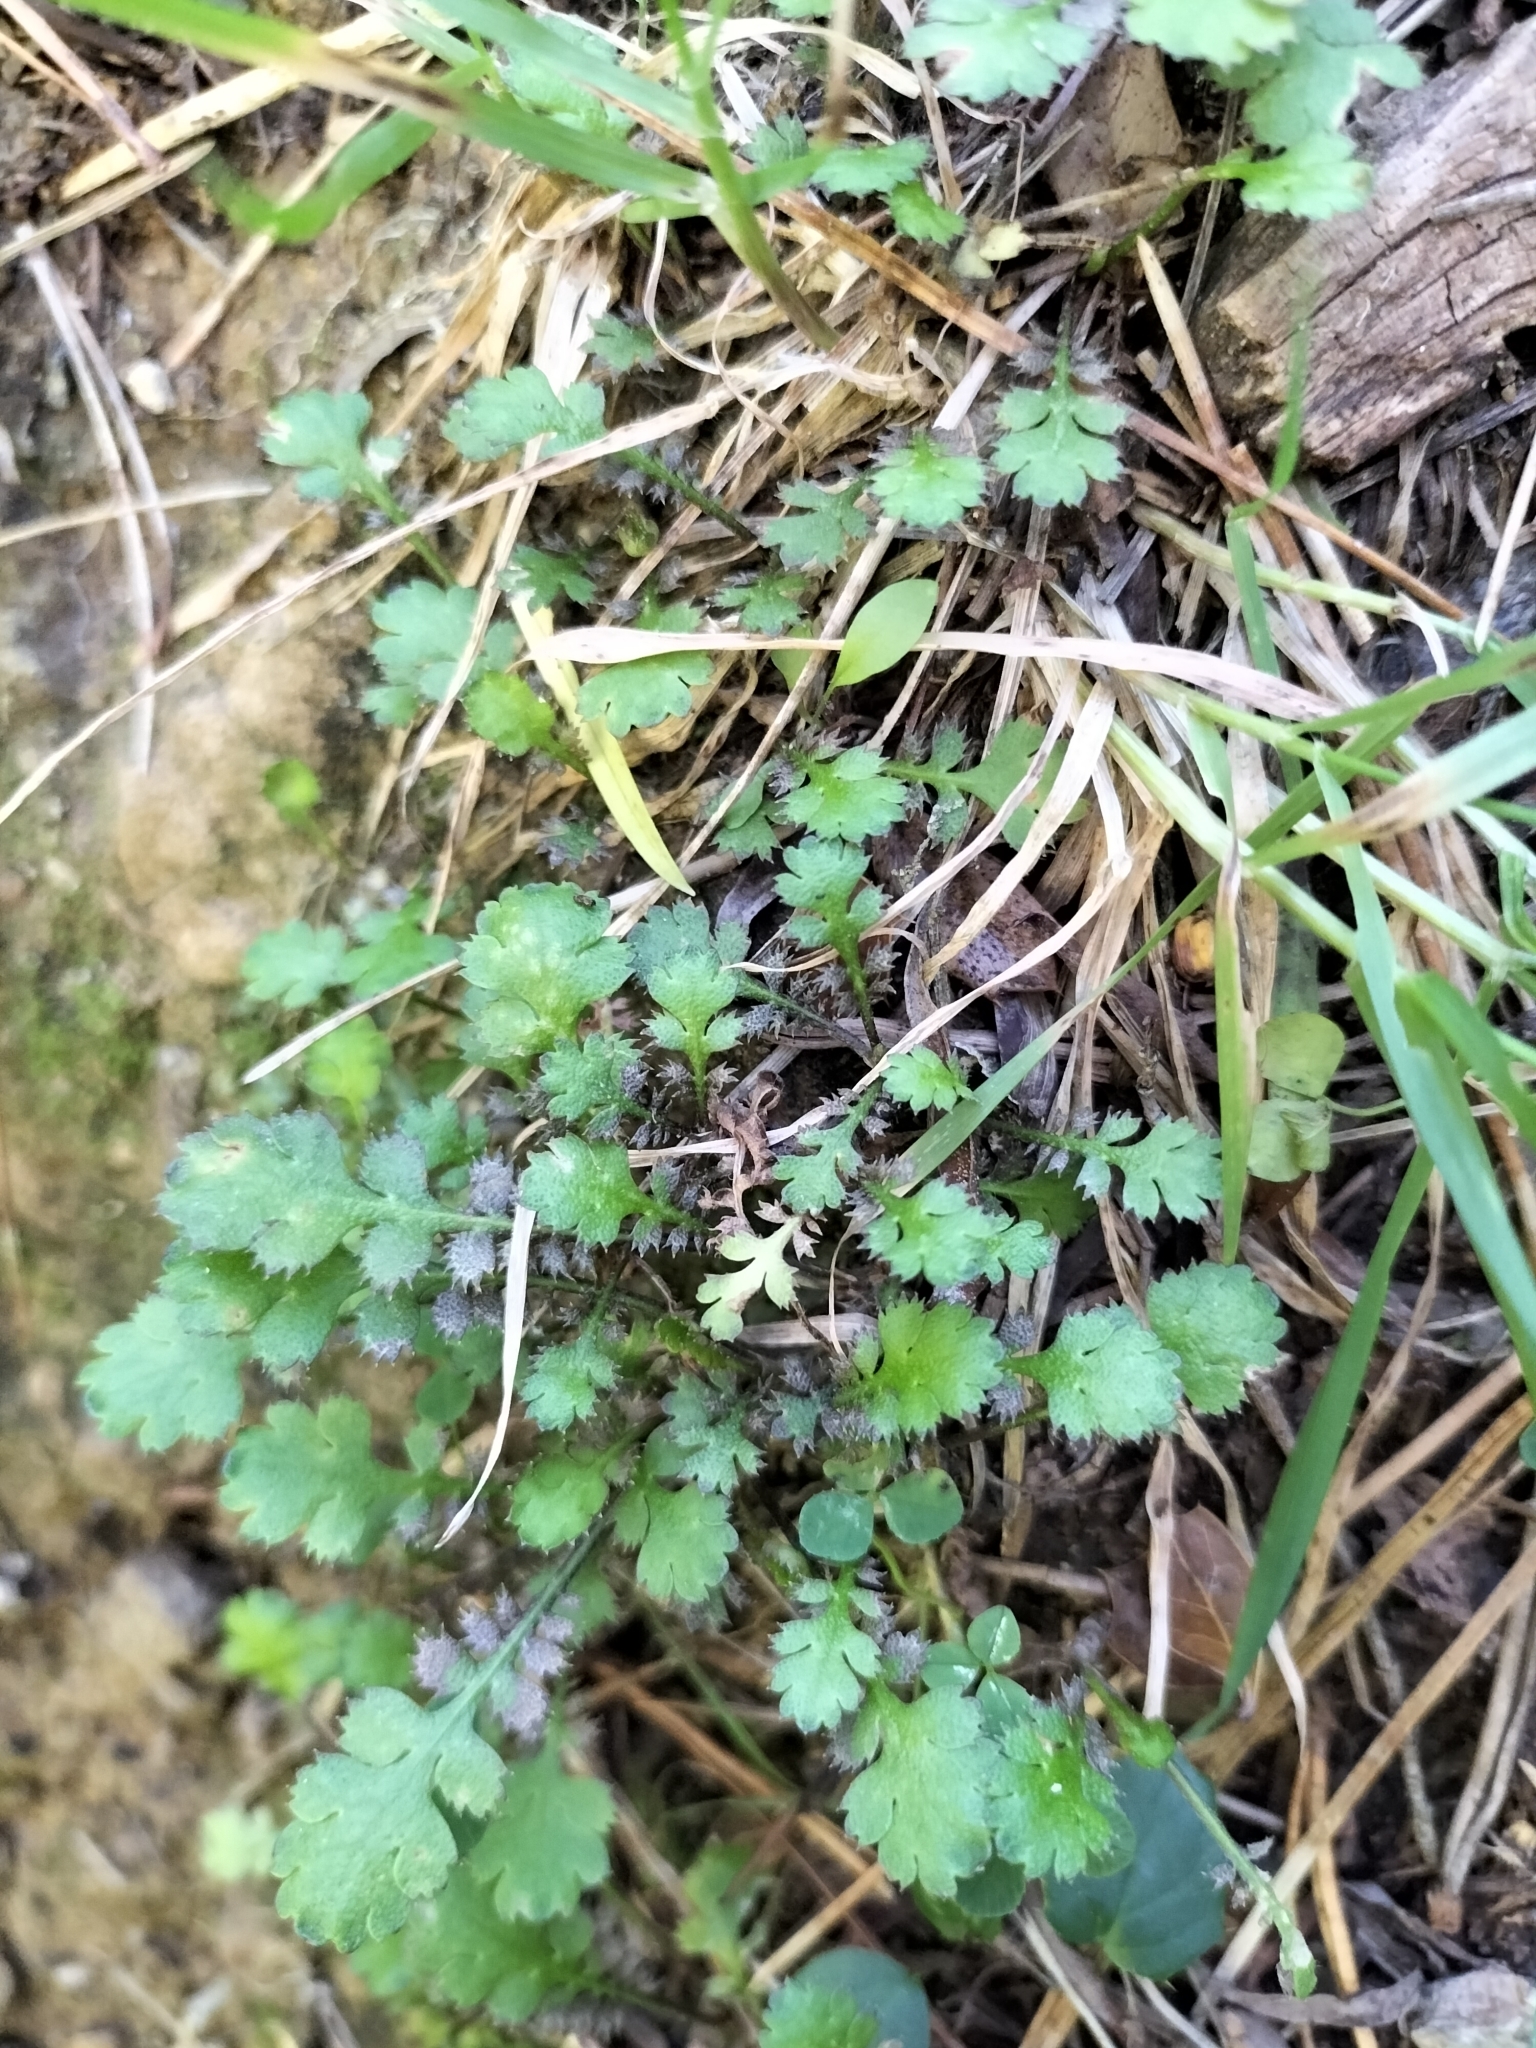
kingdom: Plantae
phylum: Tracheophyta
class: Magnoliopsida
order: Asterales
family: Asteraceae
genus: Leptinella
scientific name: Leptinella squalida
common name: New zealand brass-buttons
